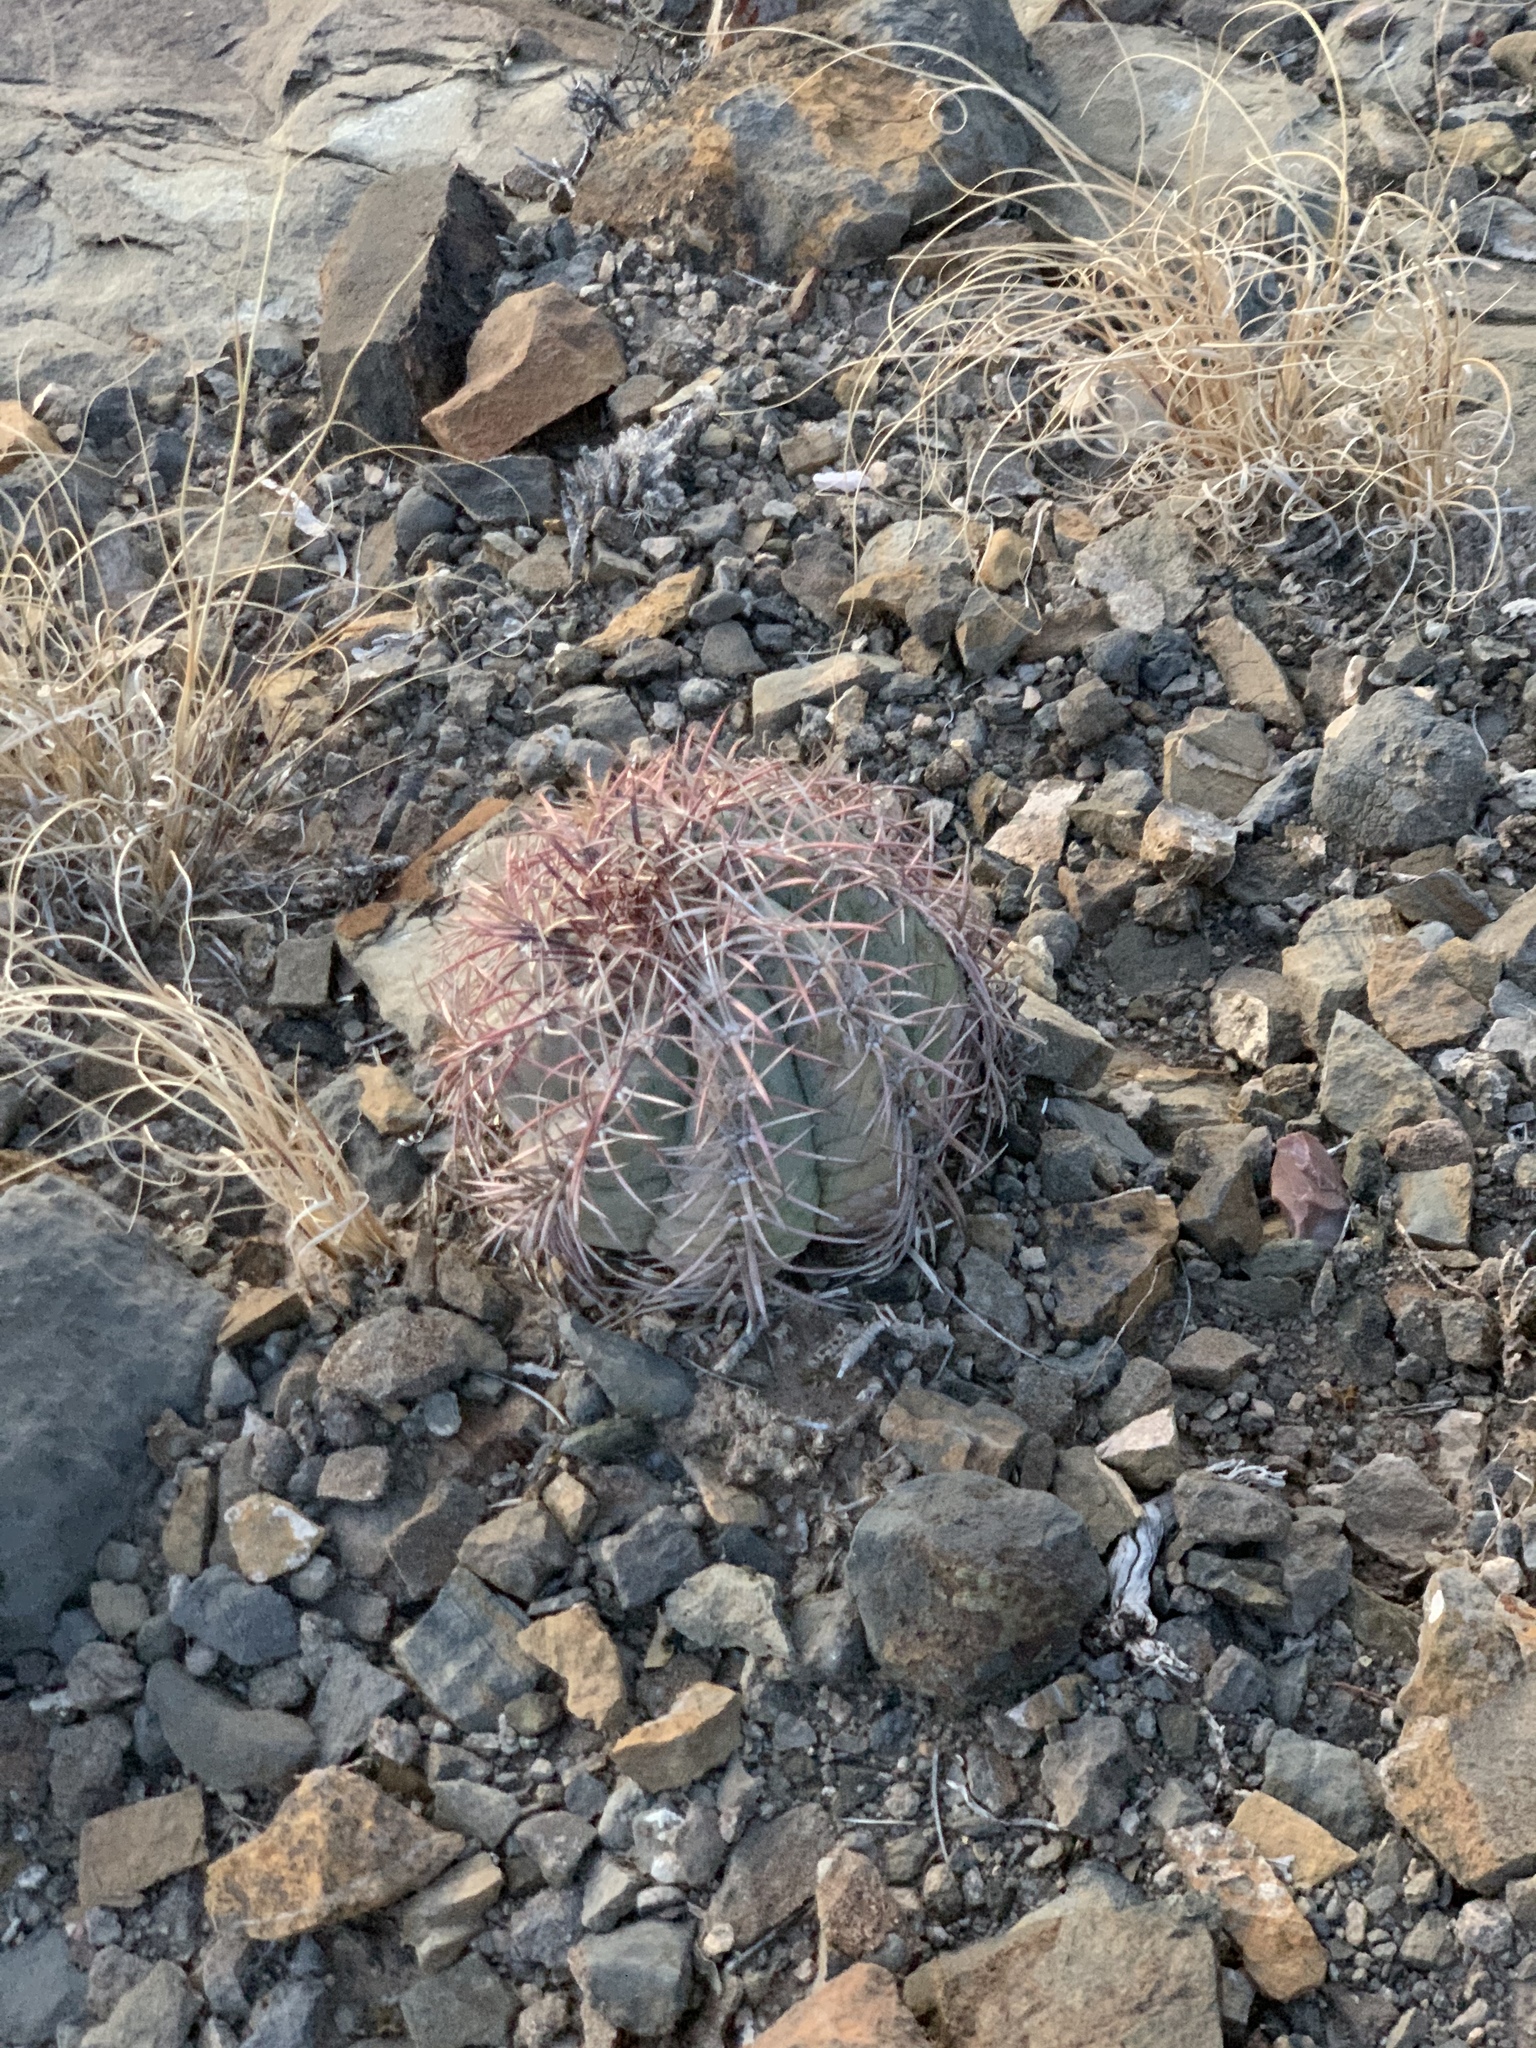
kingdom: Plantae
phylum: Tracheophyta
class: Magnoliopsida
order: Caryophyllales
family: Cactaceae
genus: Echinocactus
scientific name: Echinocactus horizonthalonius
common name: Devilshead
